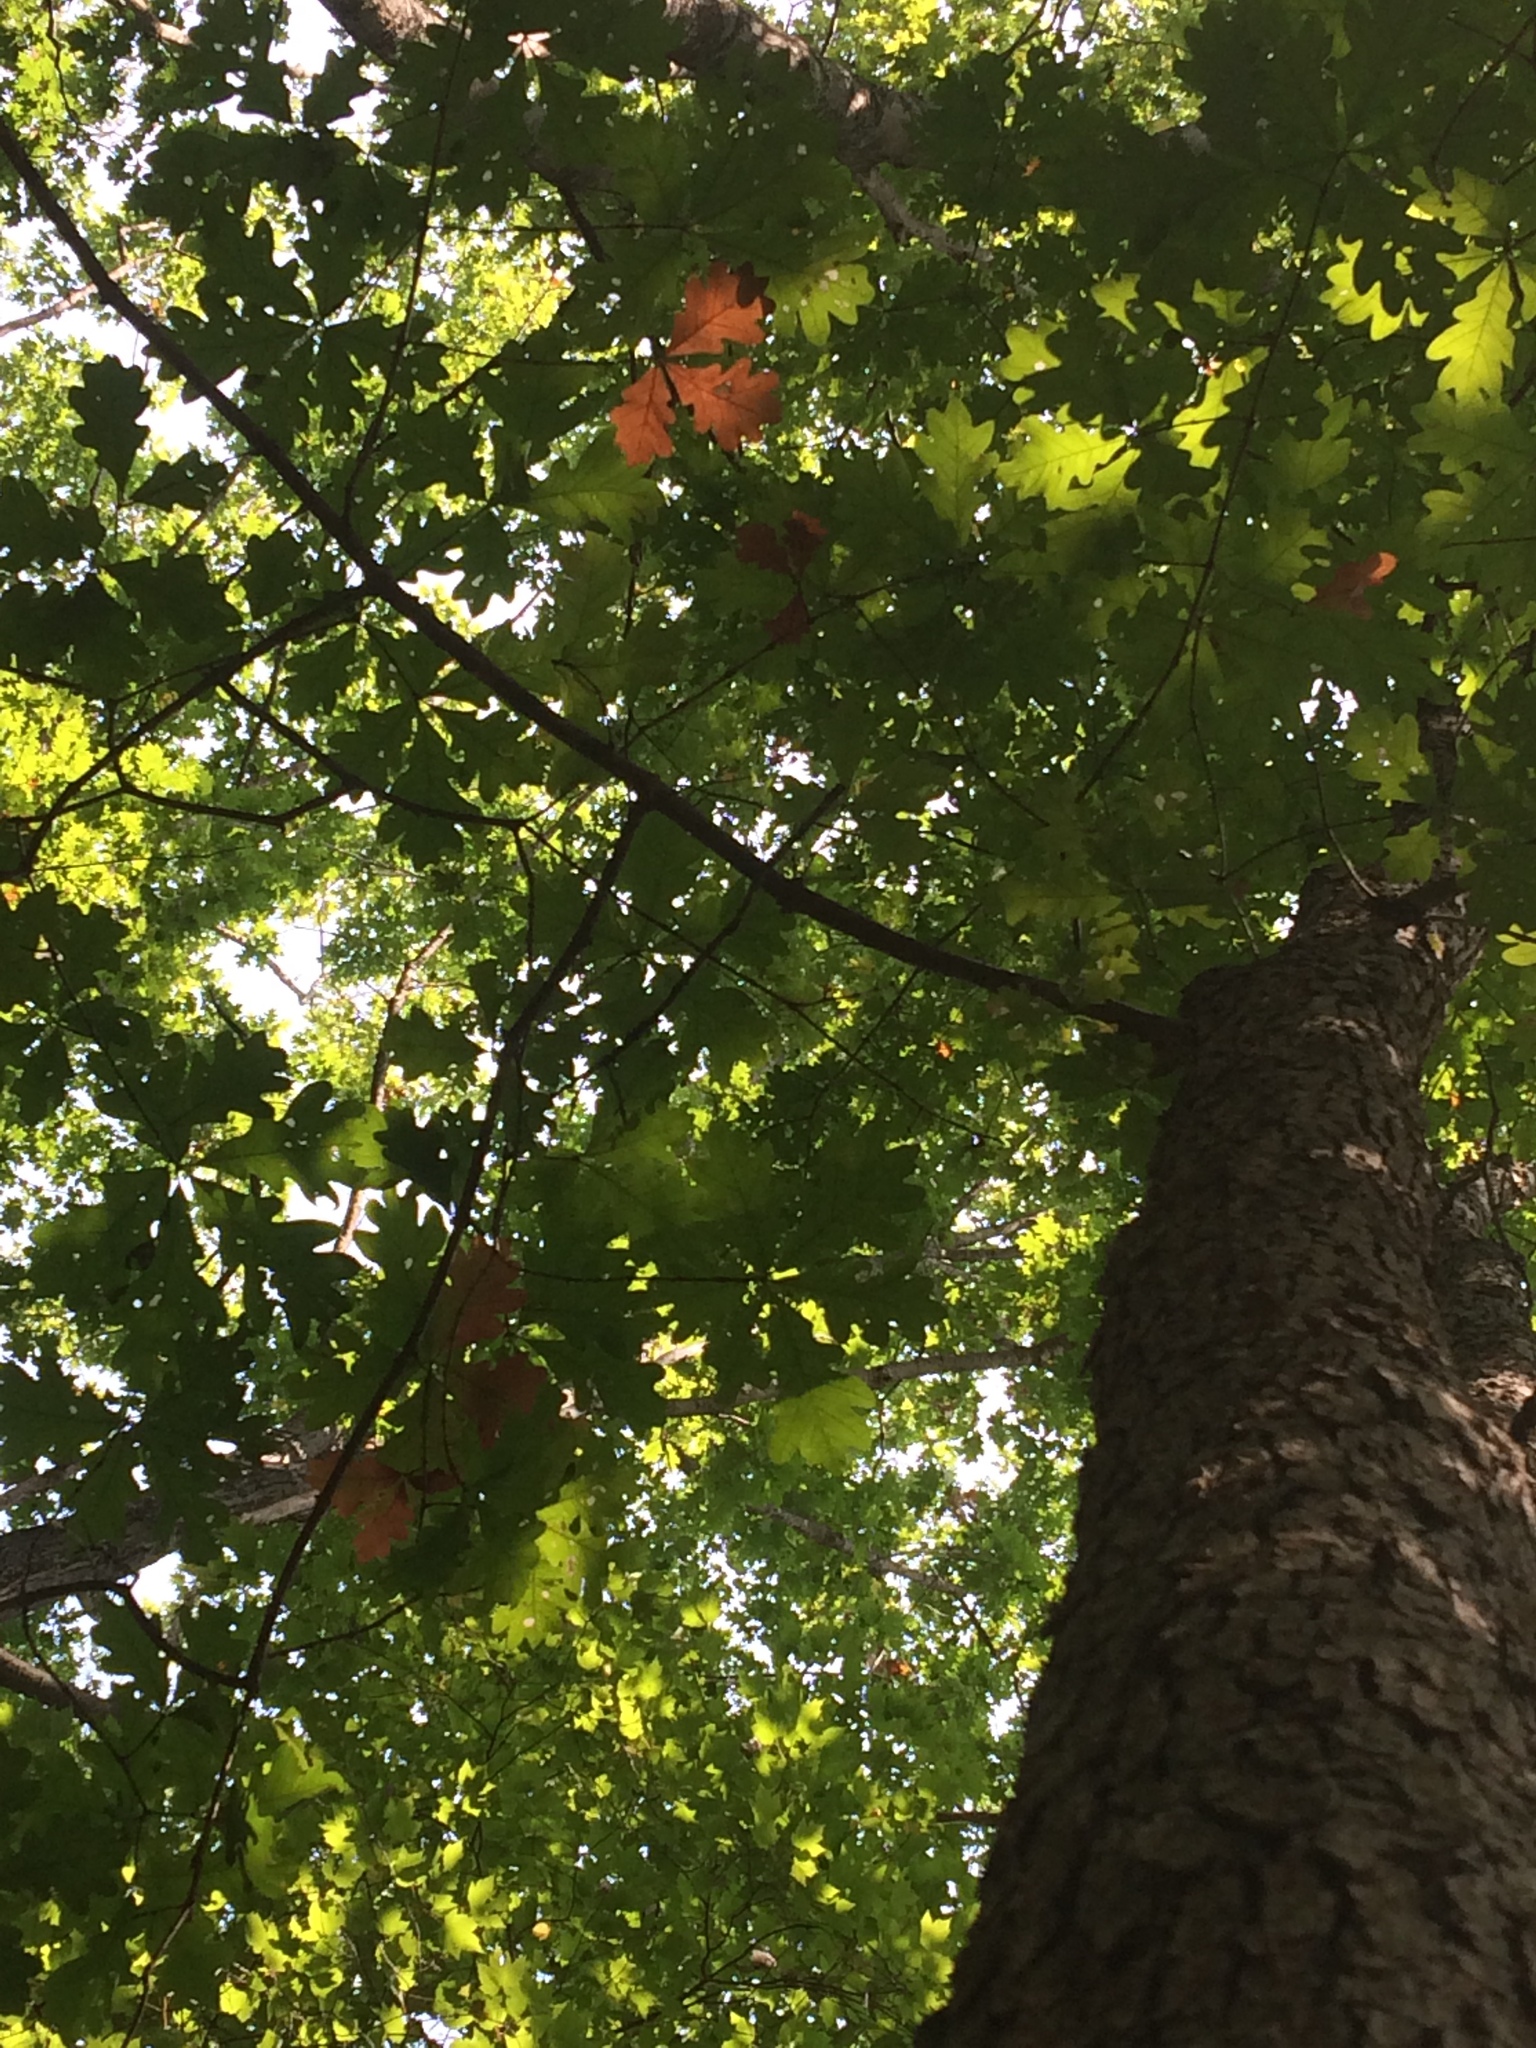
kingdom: Plantae
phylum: Tracheophyta
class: Magnoliopsida
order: Fagales
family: Fagaceae
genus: Quercus
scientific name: Quercus alba
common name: White oak
